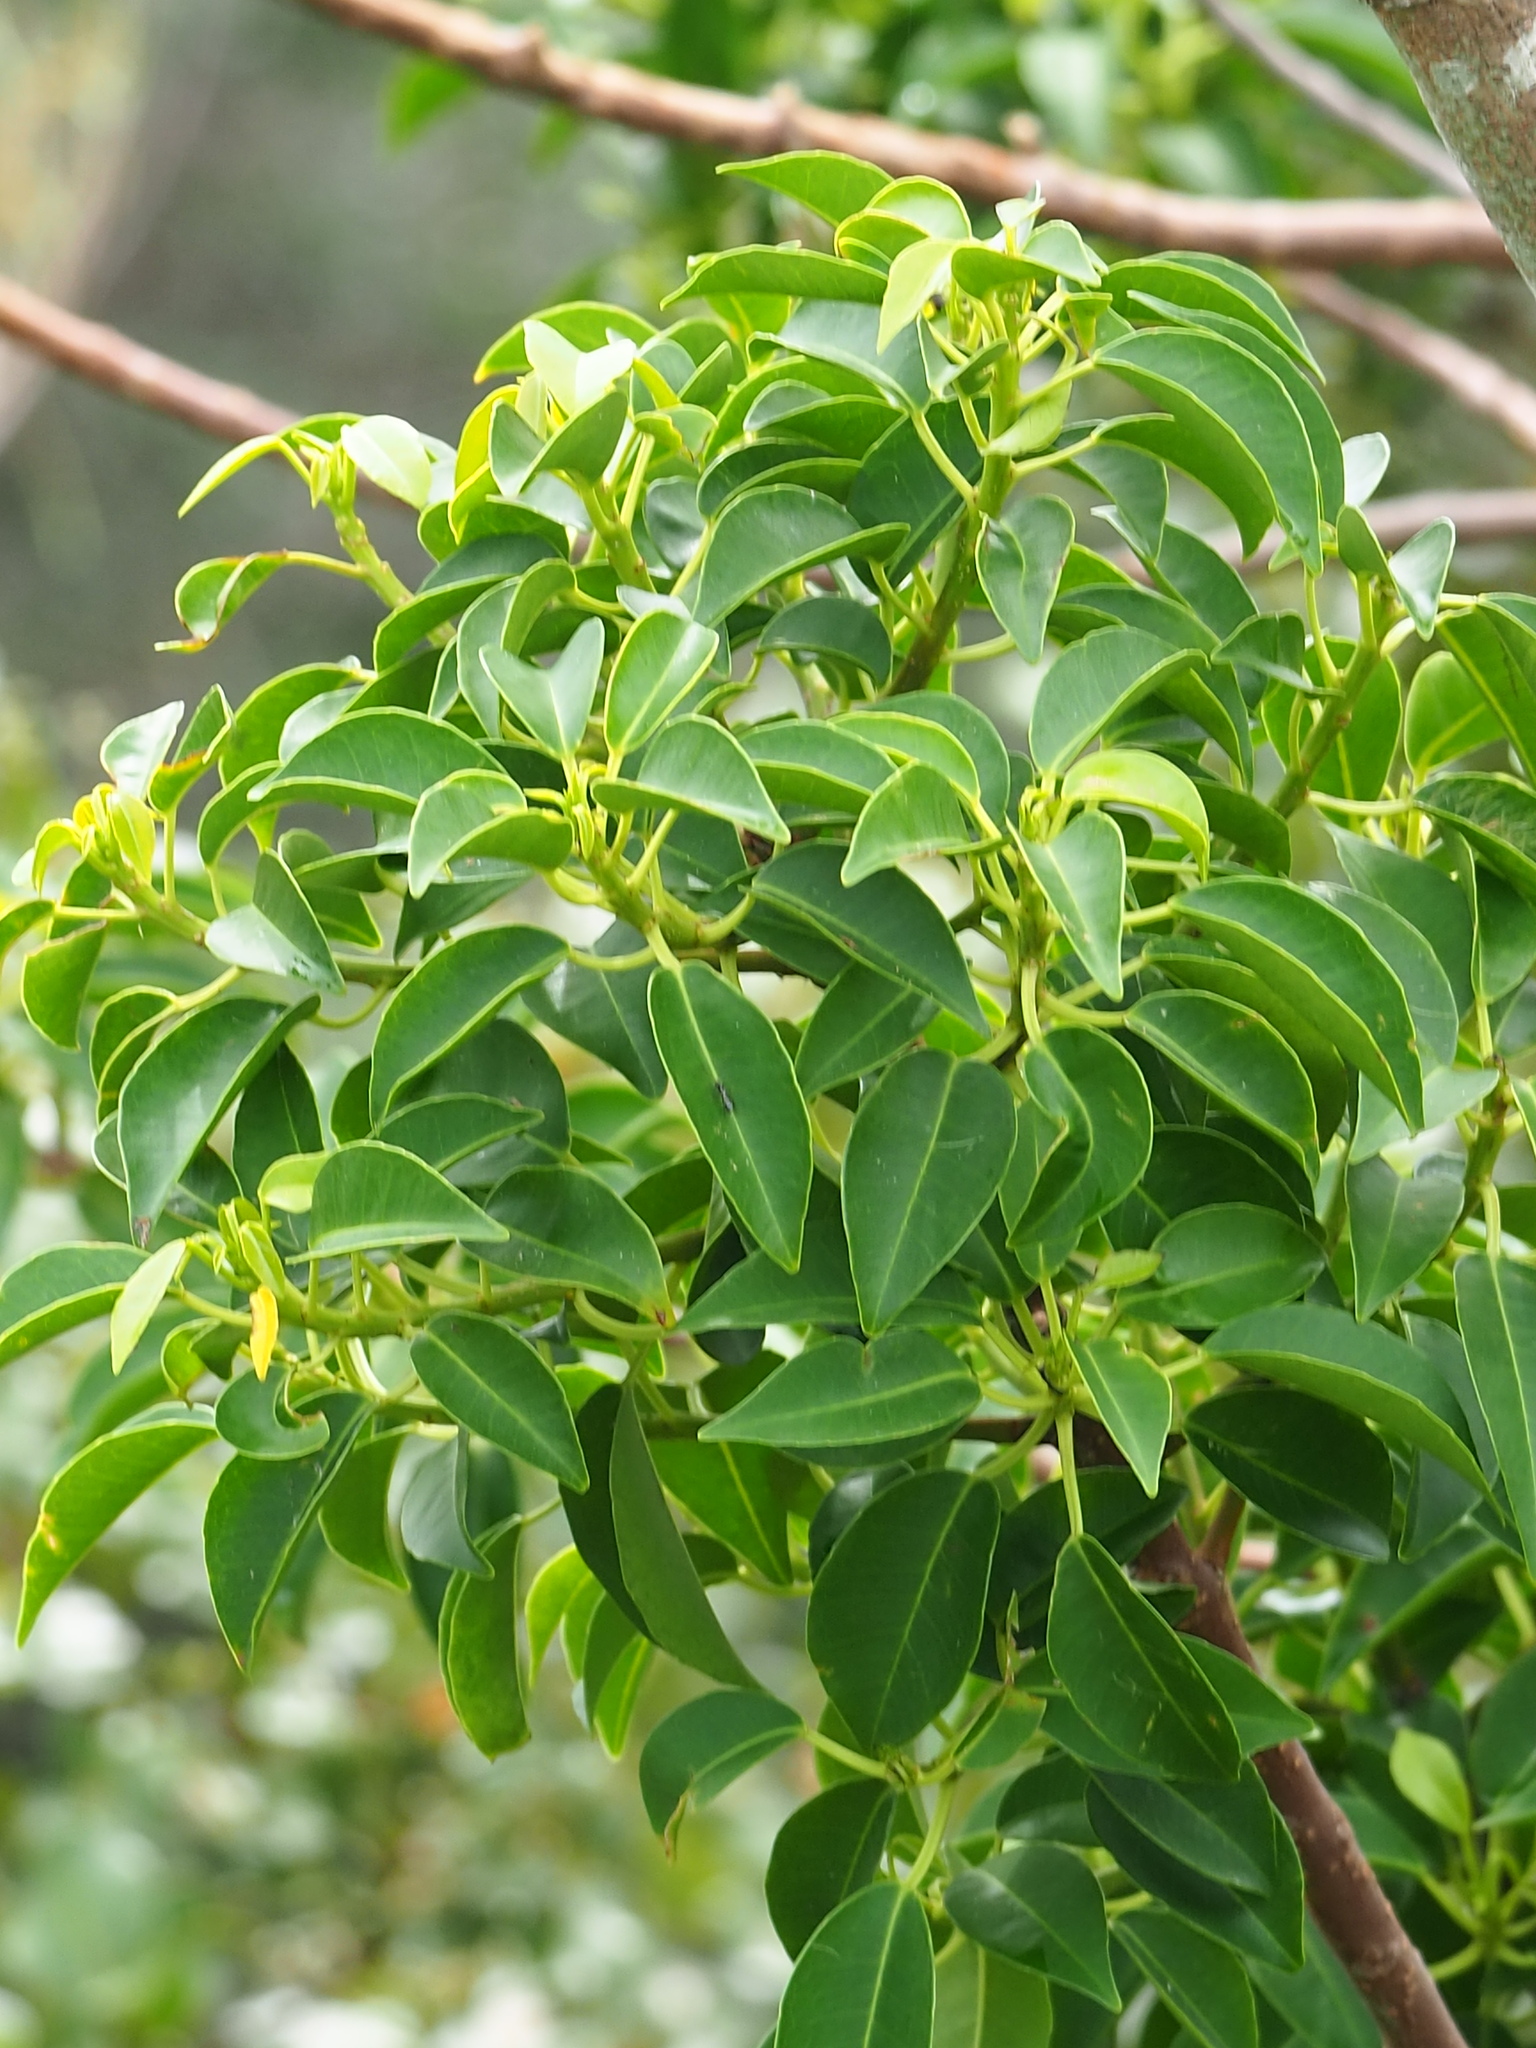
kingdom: Plantae
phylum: Tracheophyta
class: Magnoliopsida
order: Malpighiales
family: Euphorbiaceae
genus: Excoecaria
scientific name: Excoecaria agallocha
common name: River poisontree
